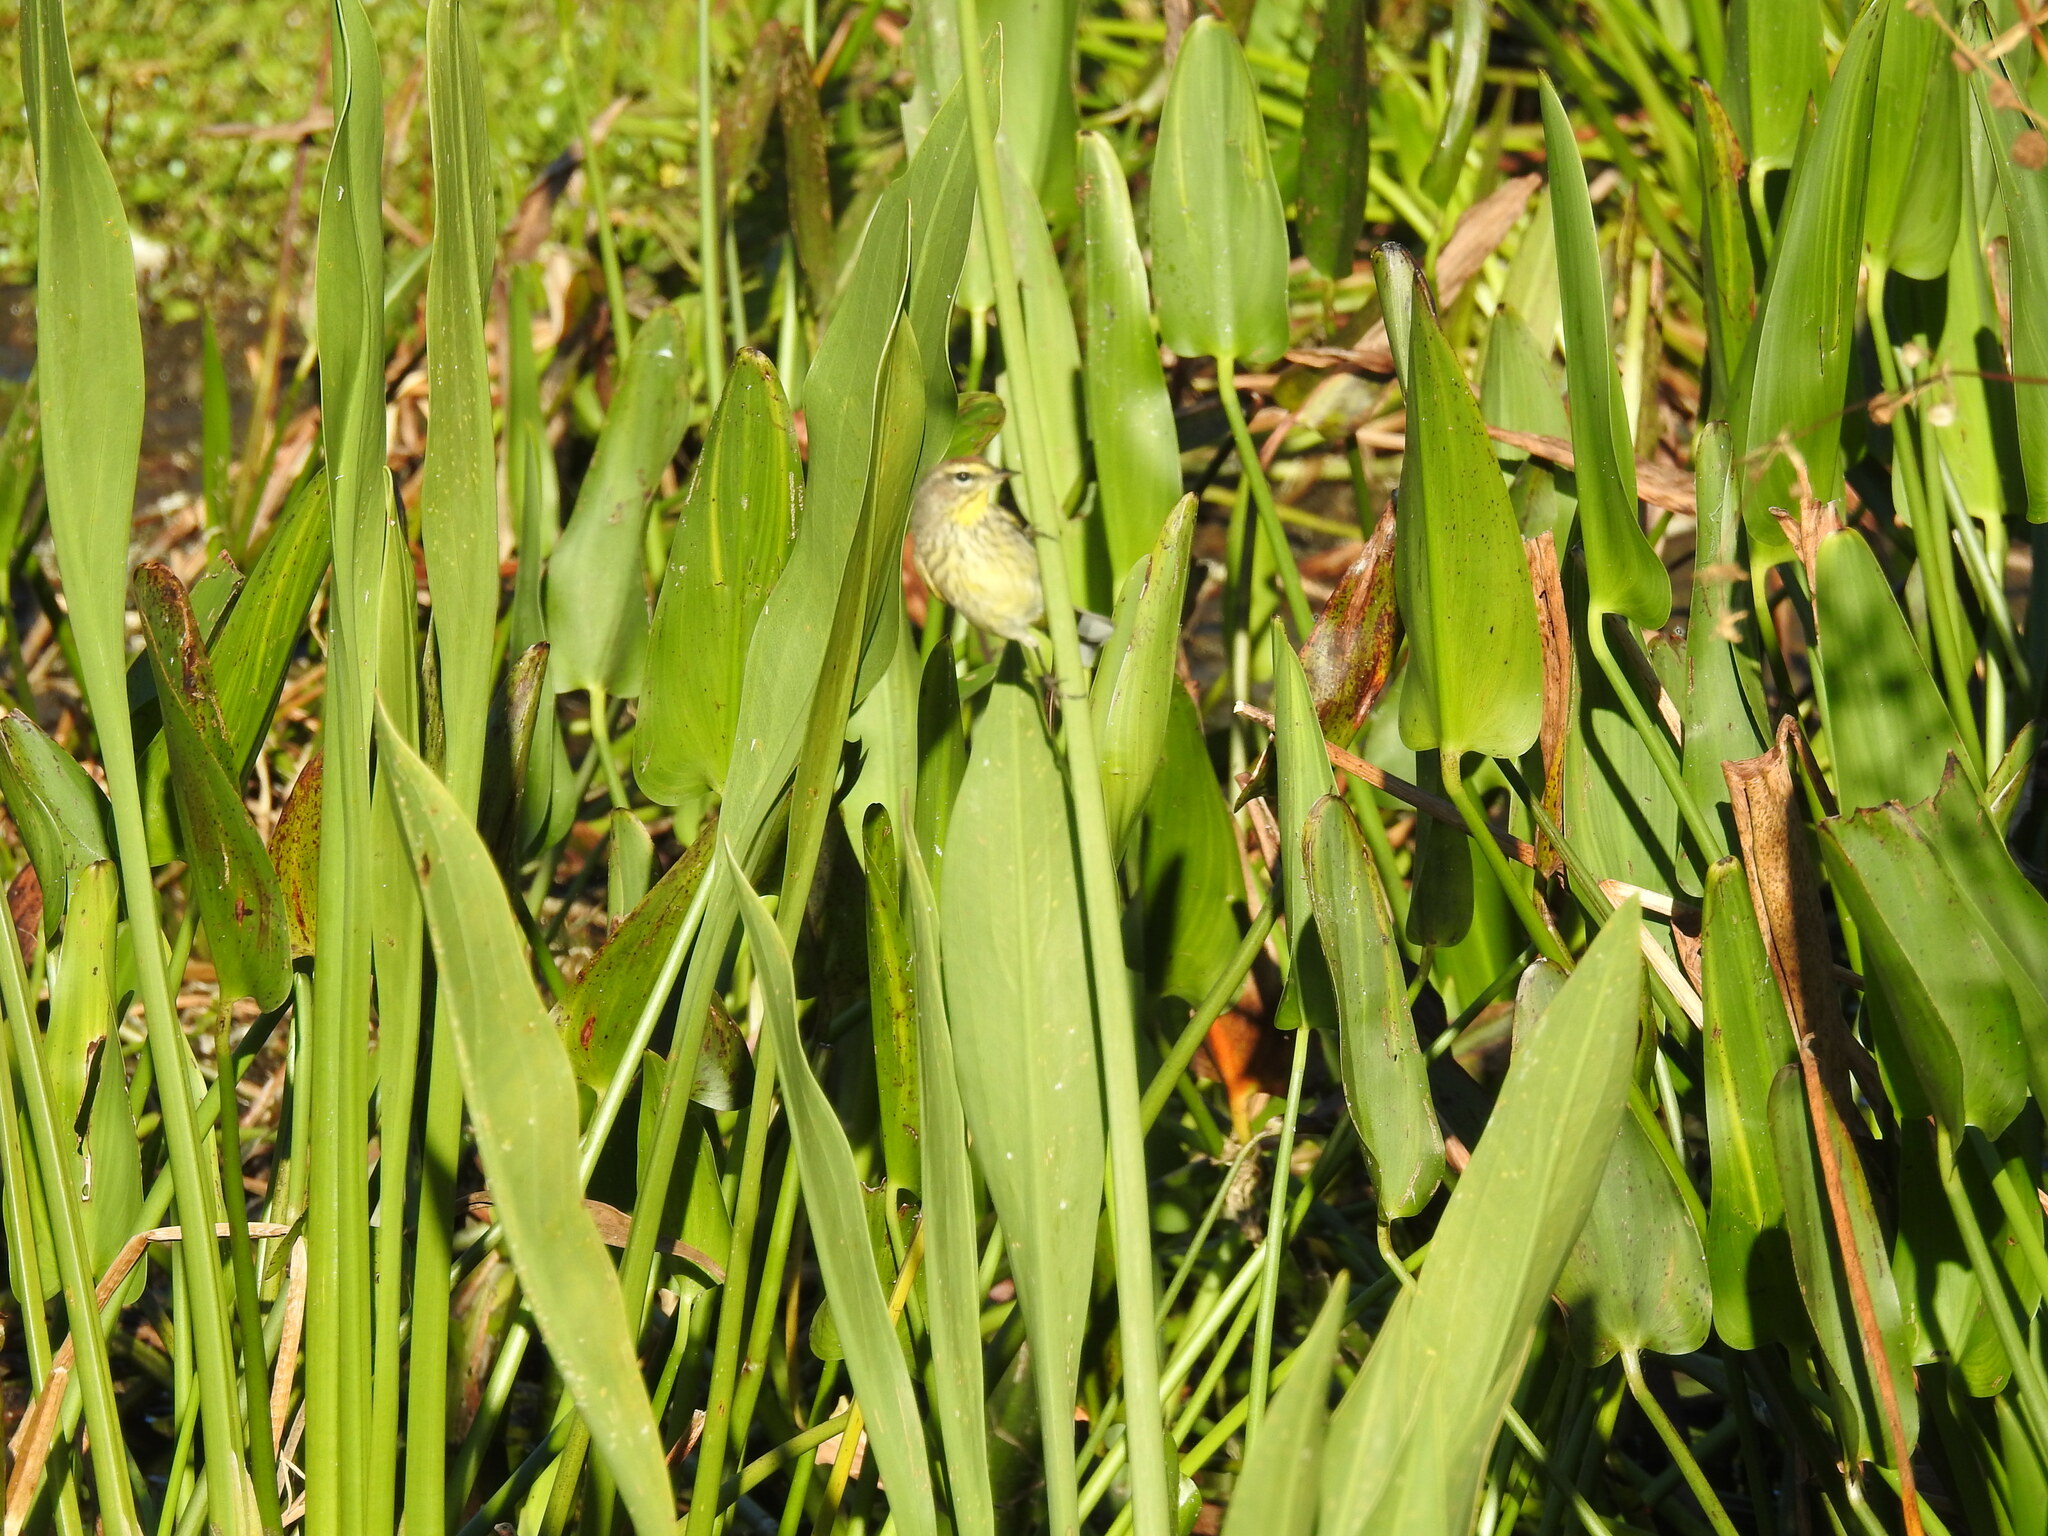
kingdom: Animalia
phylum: Chordata
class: Aves
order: Passeriformes
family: Parulidae
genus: Setophaga
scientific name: Setophaga palmarum
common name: Palm warbler
